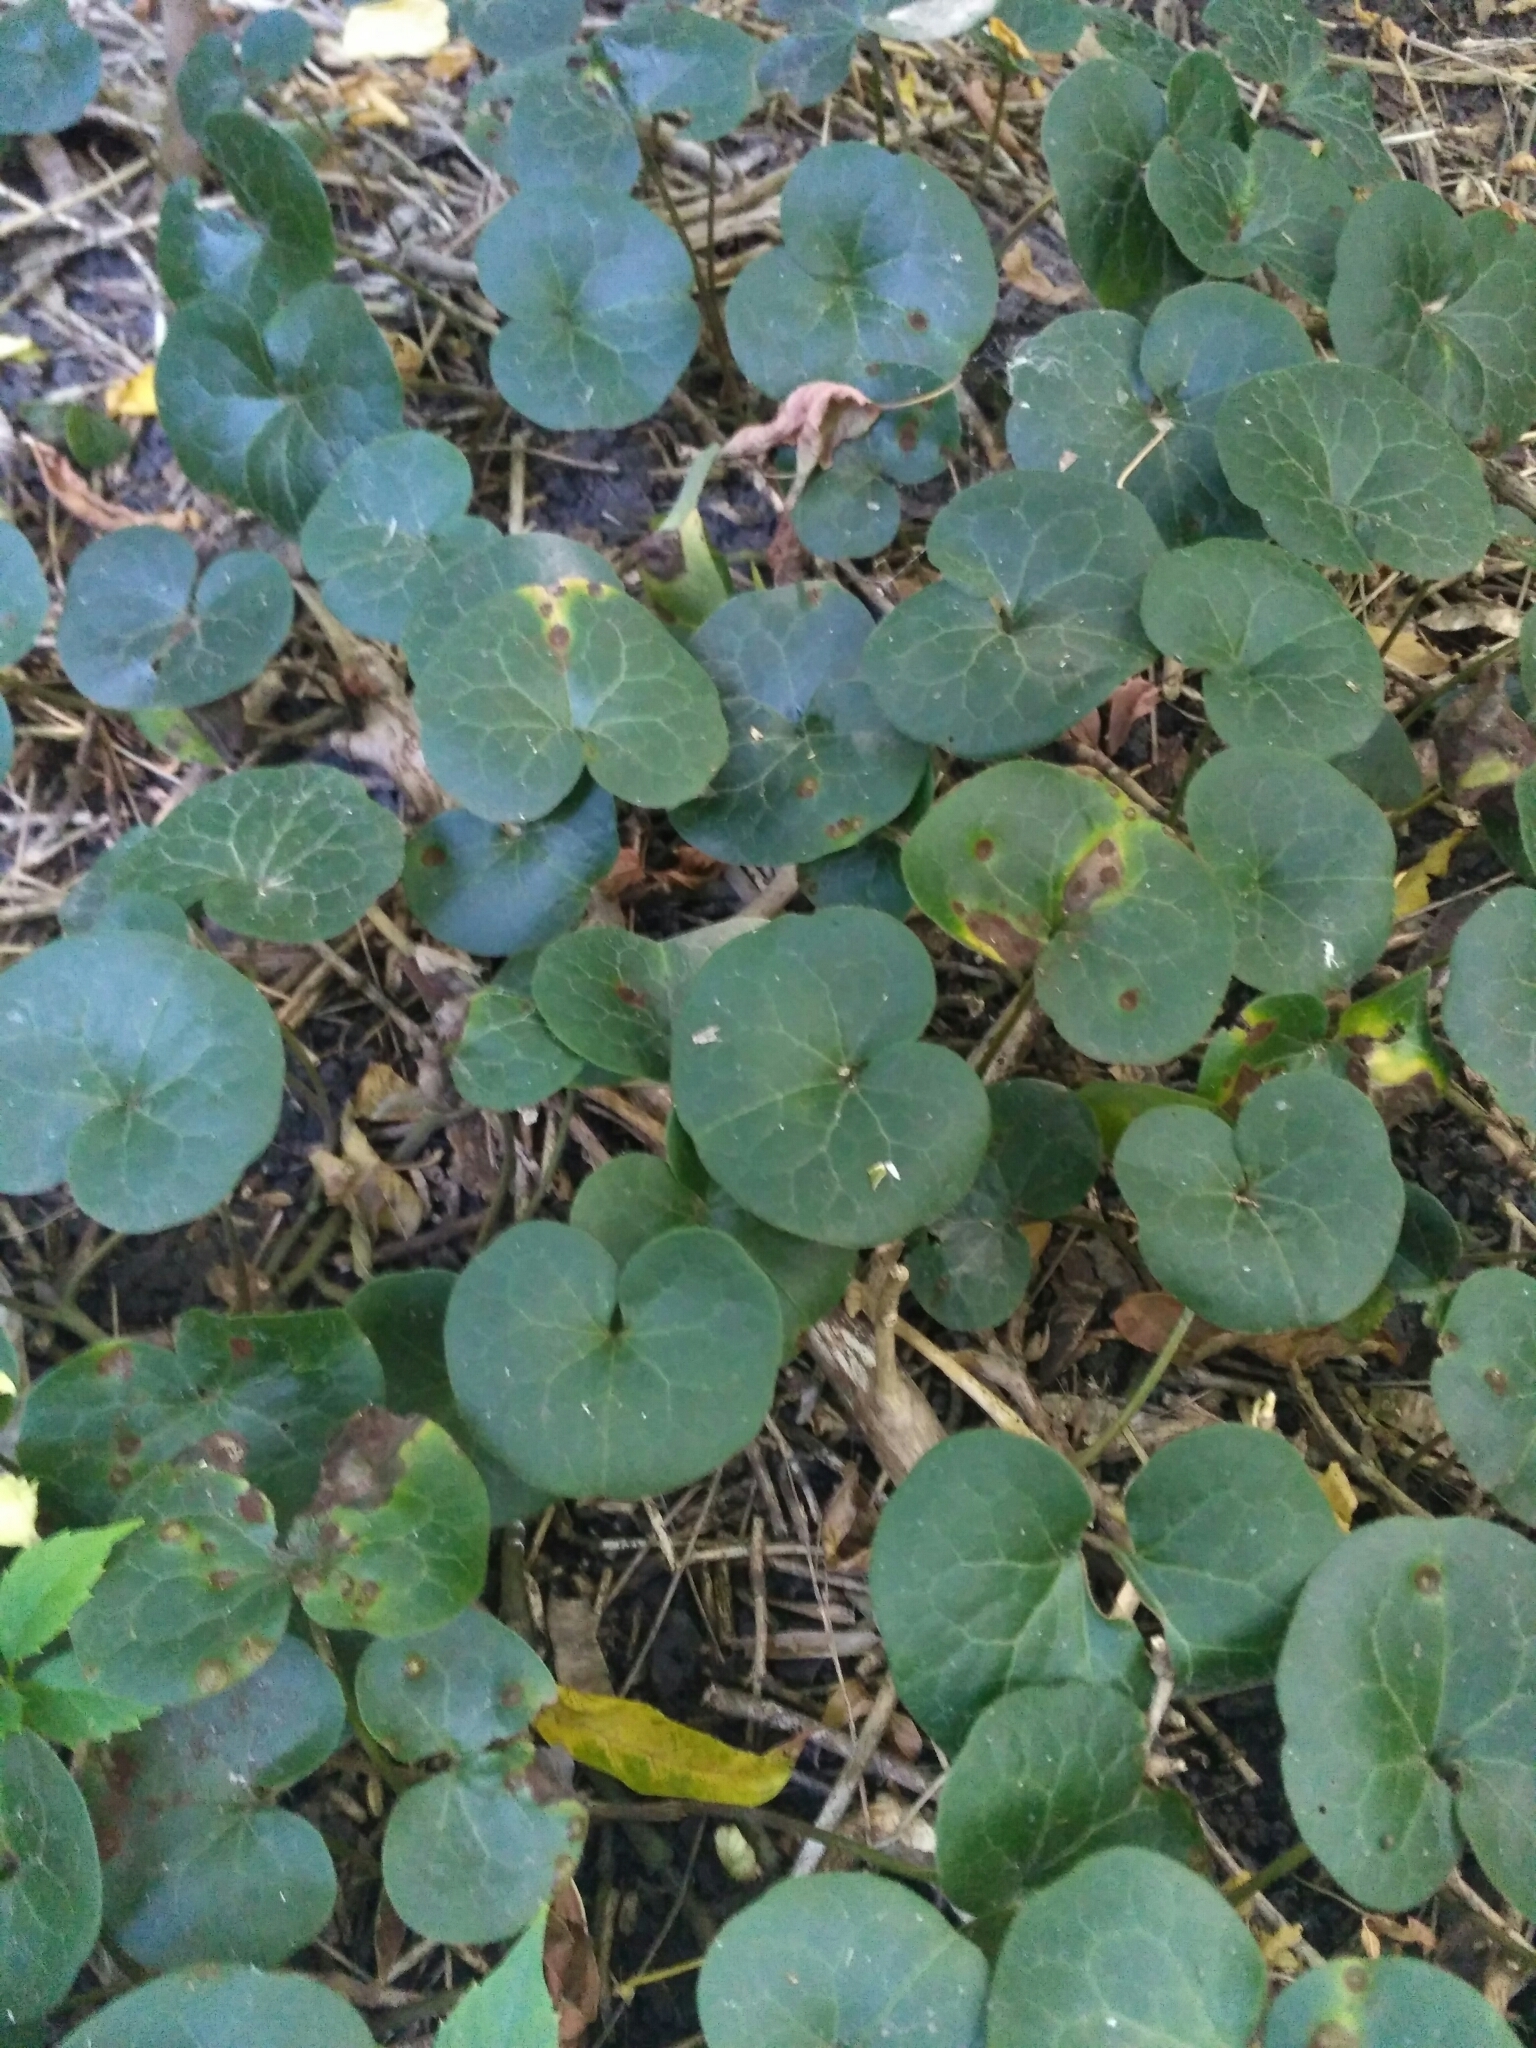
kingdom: Plantae
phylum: Tracheophyta
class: Magnoliopsida
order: Piperales
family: Aristolochiaceae
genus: Asarum
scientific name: Asarum europaeum
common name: Asarabacca
